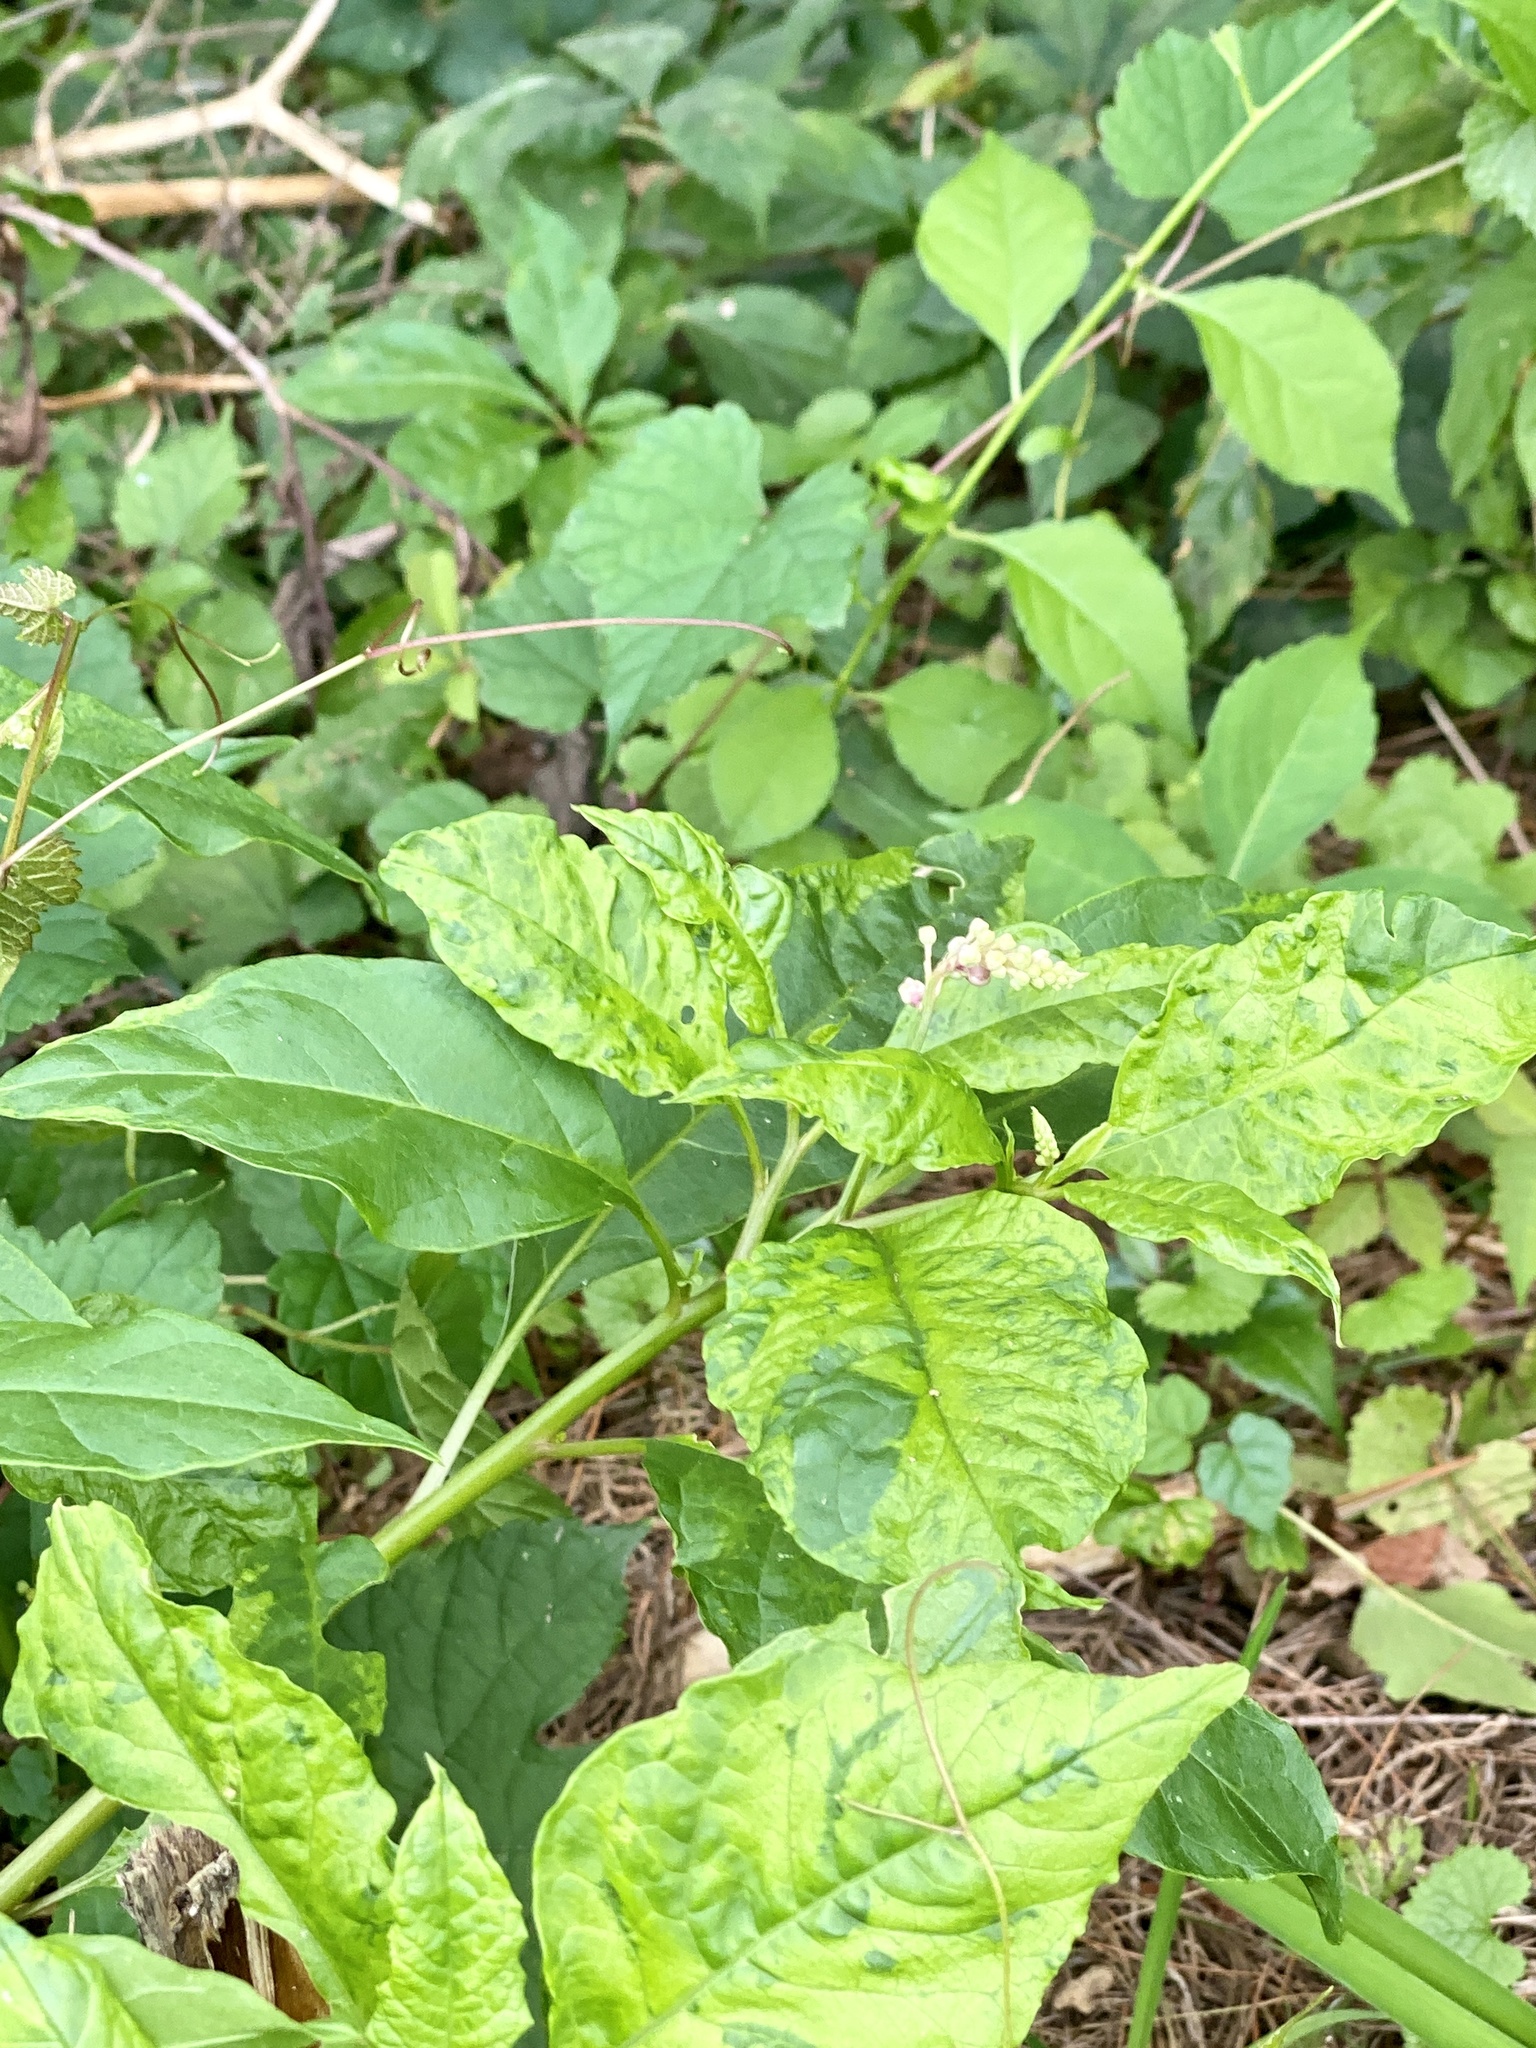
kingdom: Viruses
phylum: Pisuviricota
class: Stelpaviricetes
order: Patatavirales
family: Potyviridae
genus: Potyvirus
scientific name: Potyvirus Pokeweed mosaic virus
